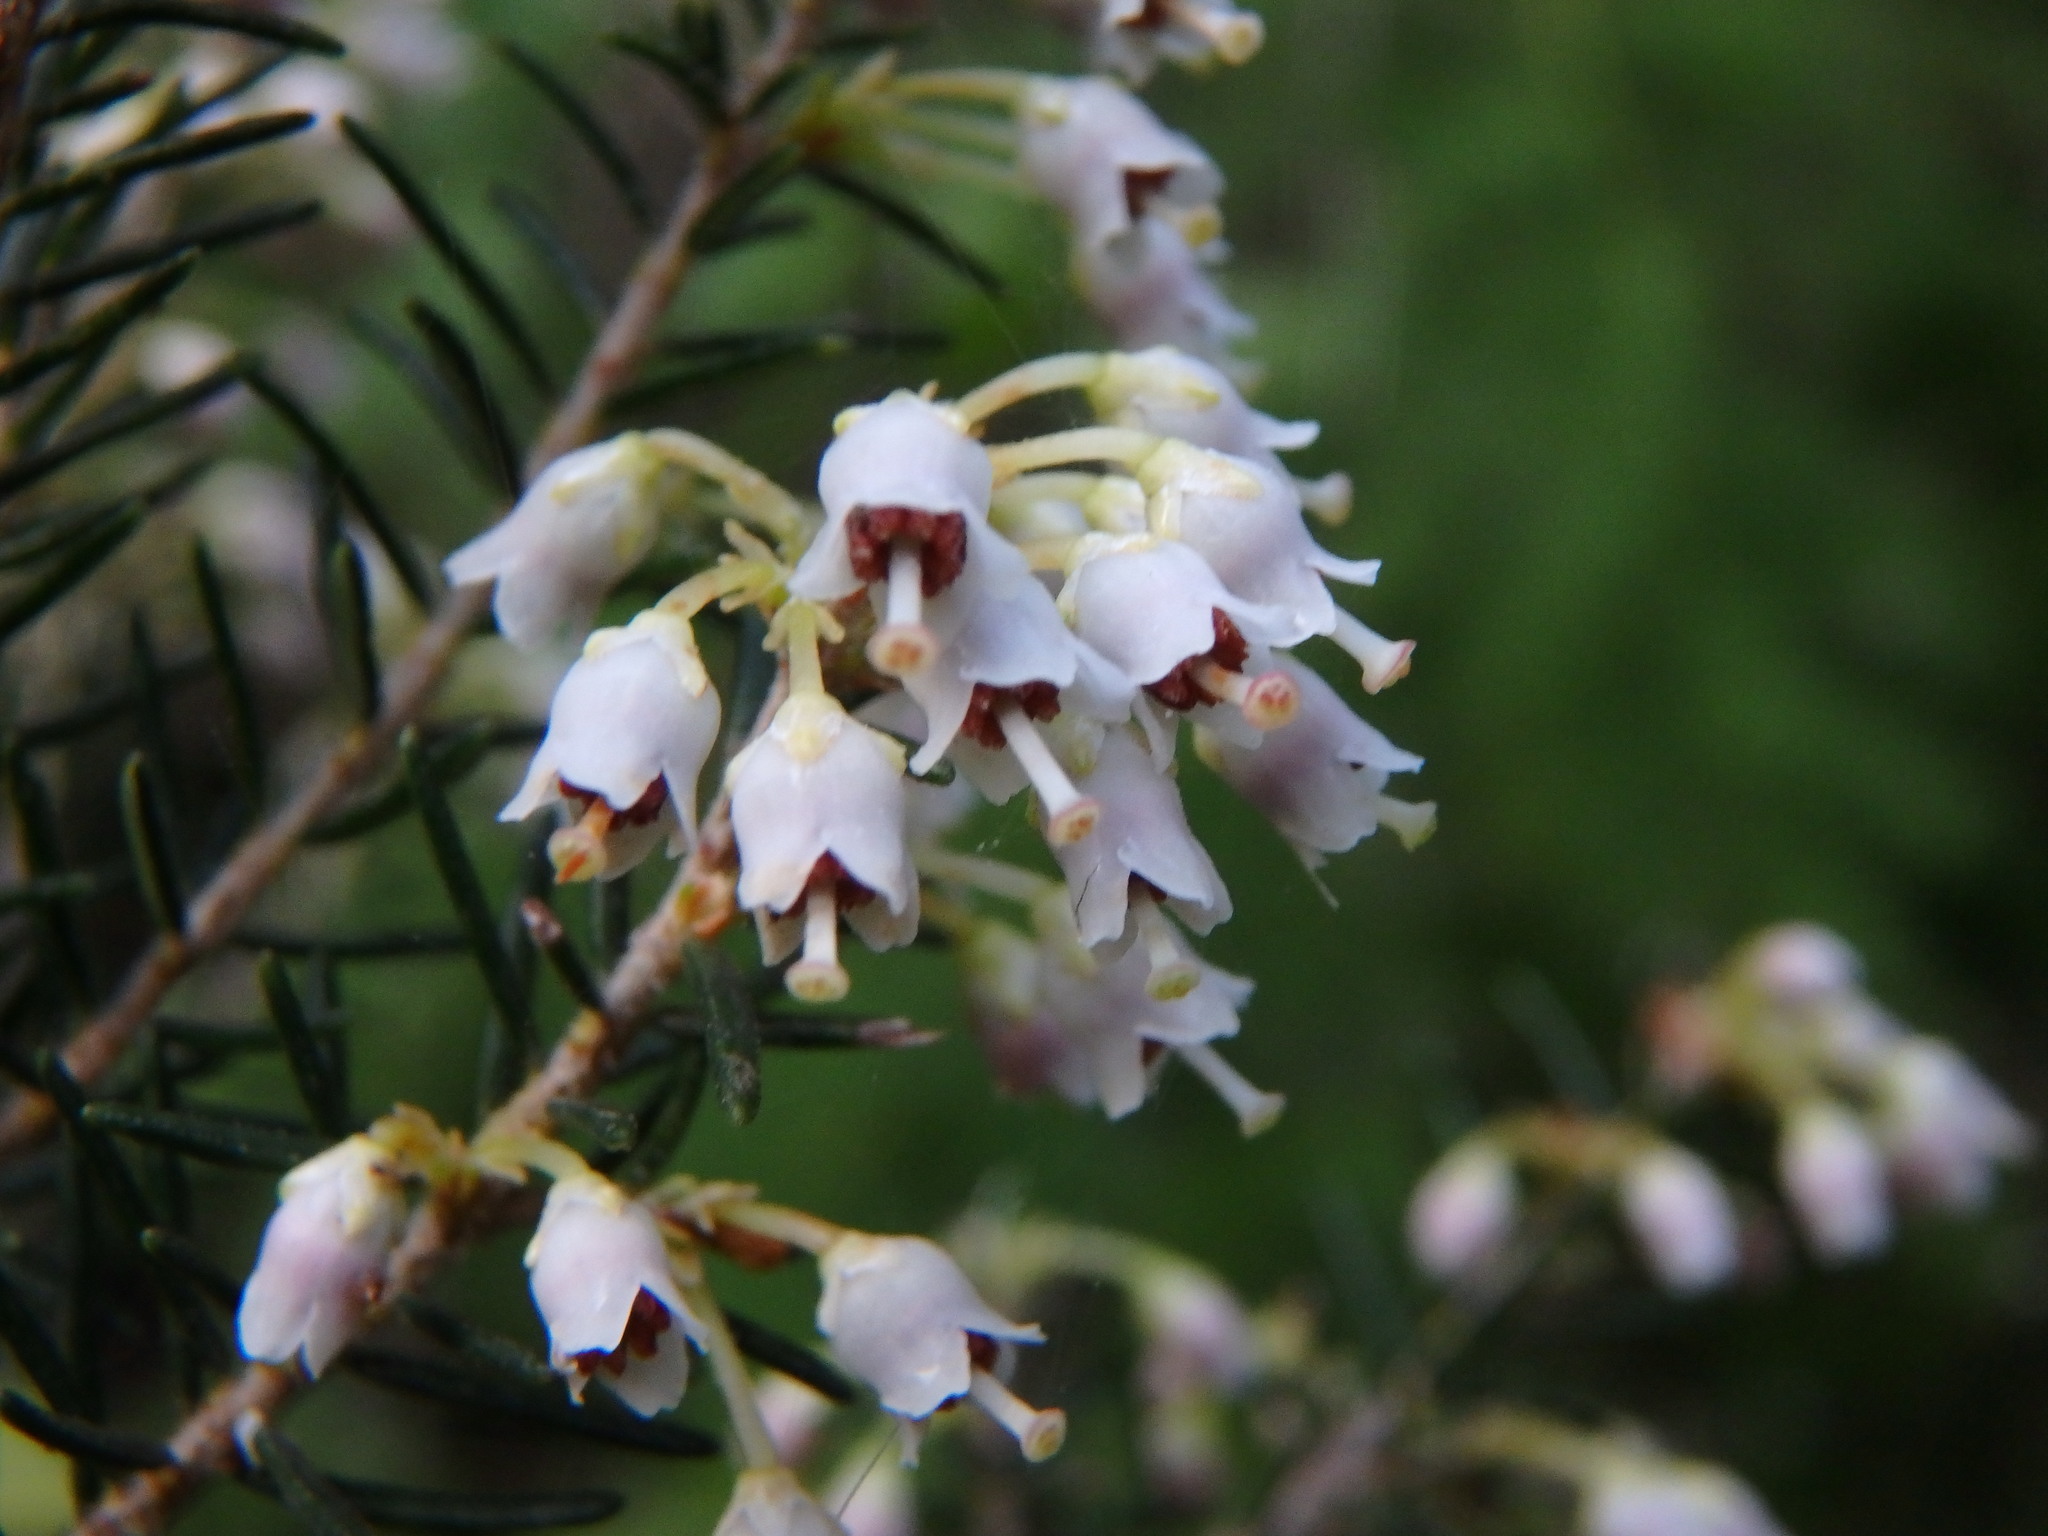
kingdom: Plantae
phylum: Tracheophyta
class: Magnoliopsida
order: Ericales
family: Ericaceae
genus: Erica
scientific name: Erica canariensis
